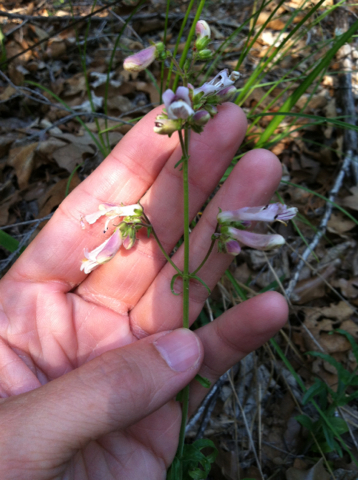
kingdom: Plantae
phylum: Tracheophyta
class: Magnoliopsida
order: Lamiales
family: Plantaginaceae
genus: Penstemon
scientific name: Penstemon laxiflorus
